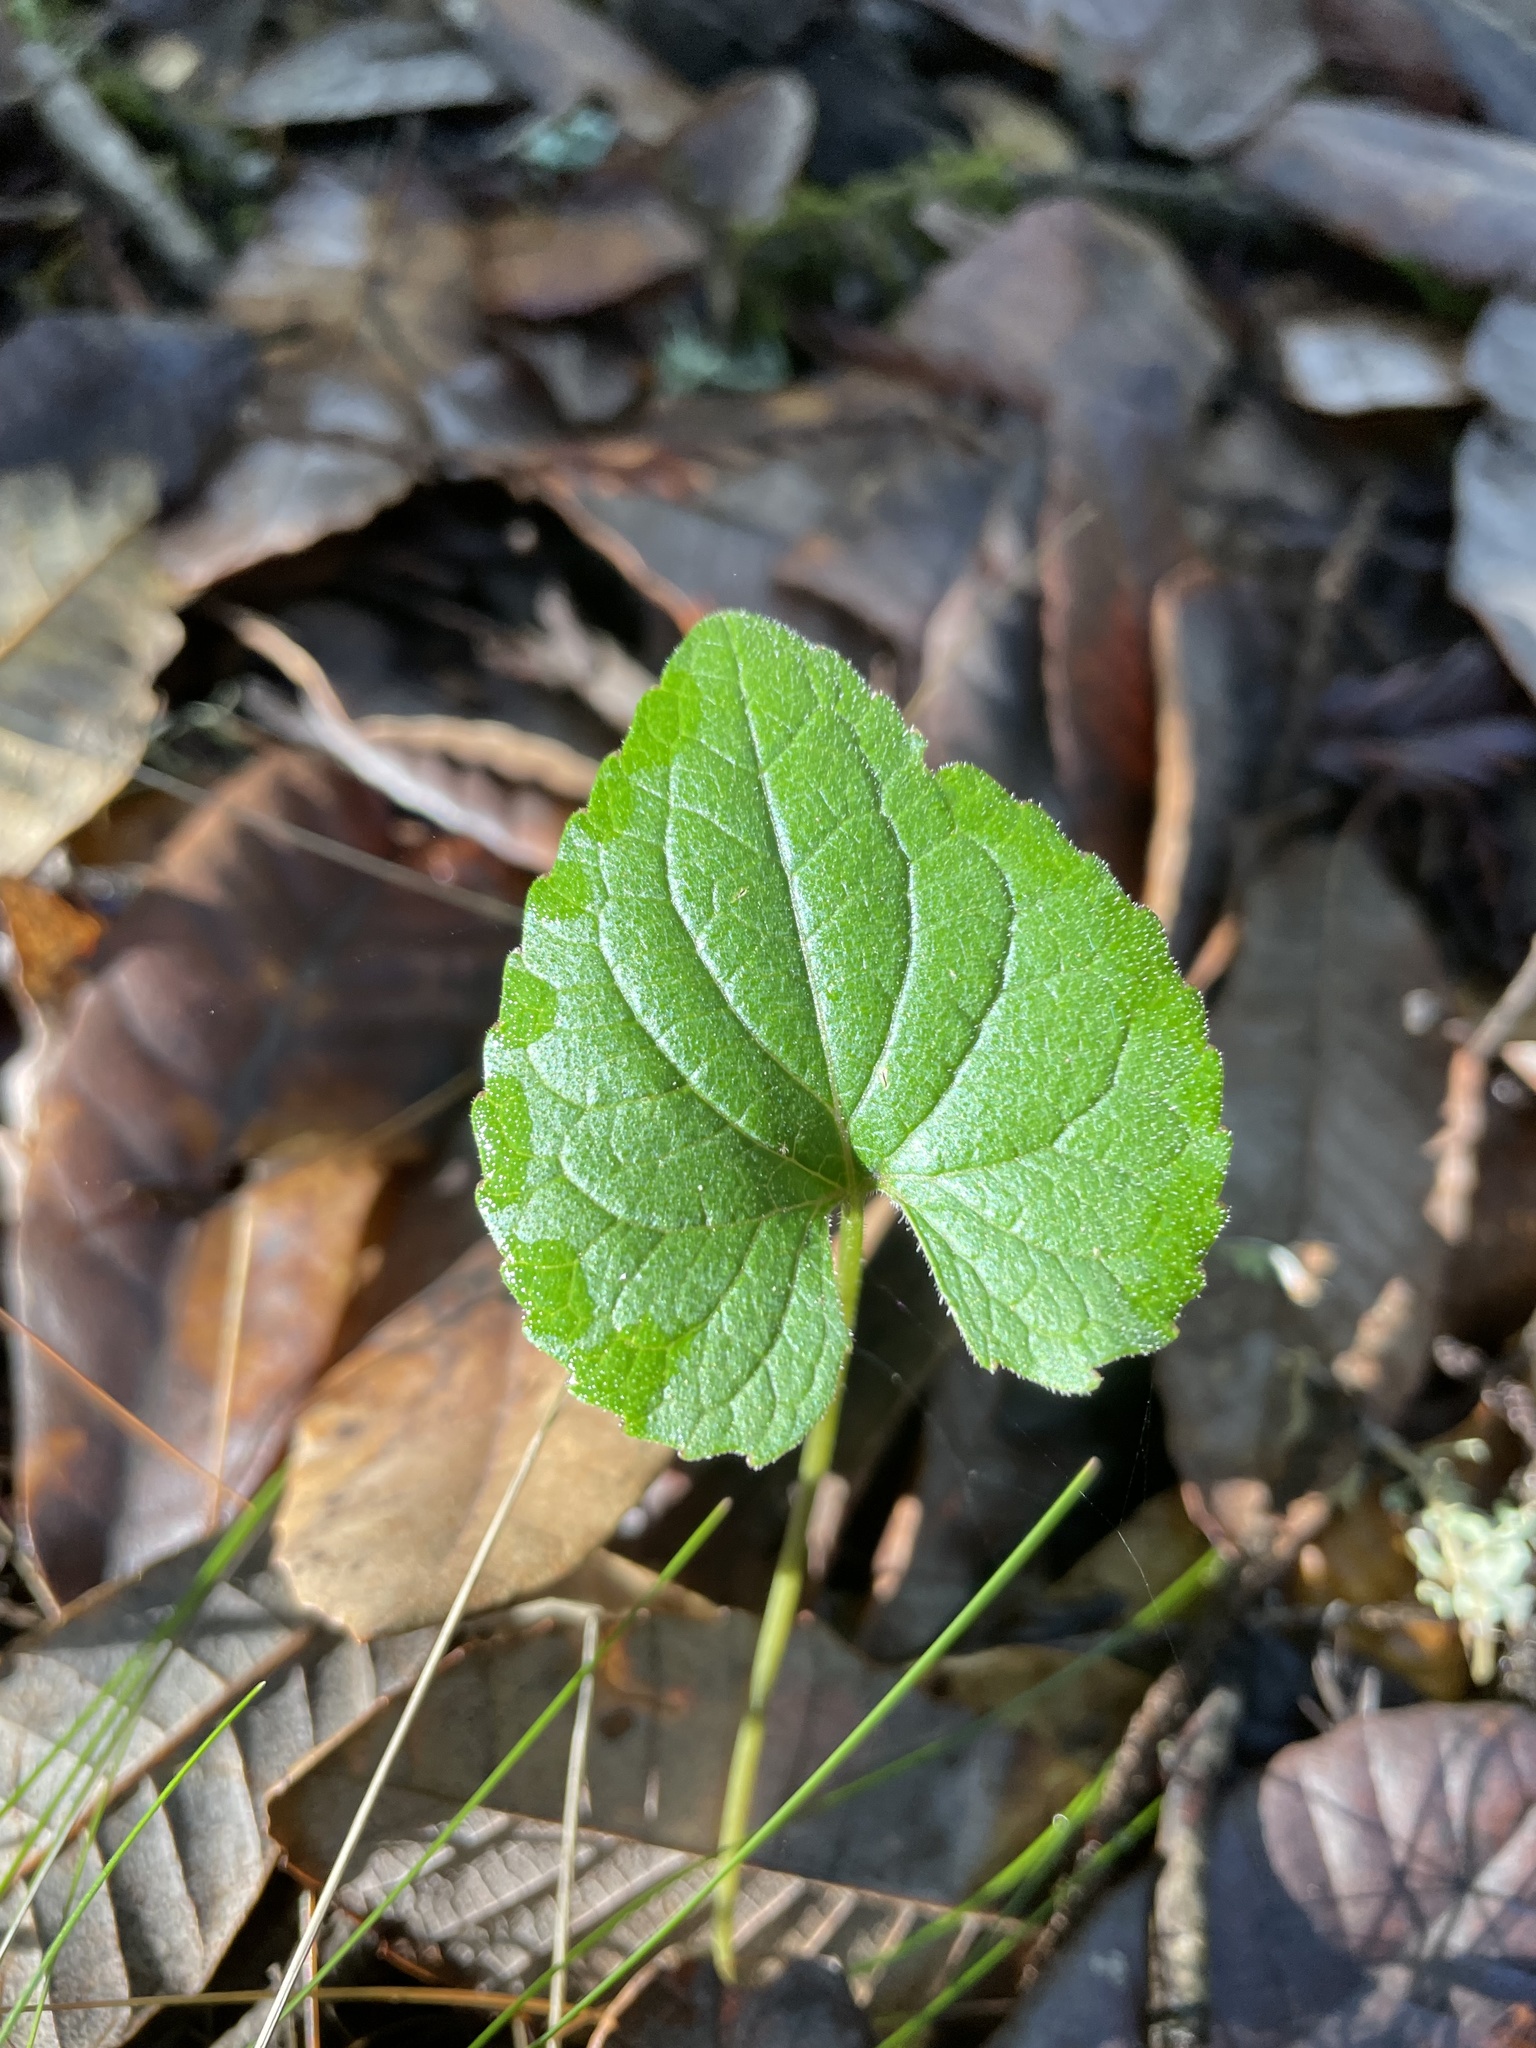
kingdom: Plantae
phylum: Tracheophyta
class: Magnoliopsida
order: Malpighiales
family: Violaceae
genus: Viola
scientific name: Viola ocellata
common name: Western heart's ease
